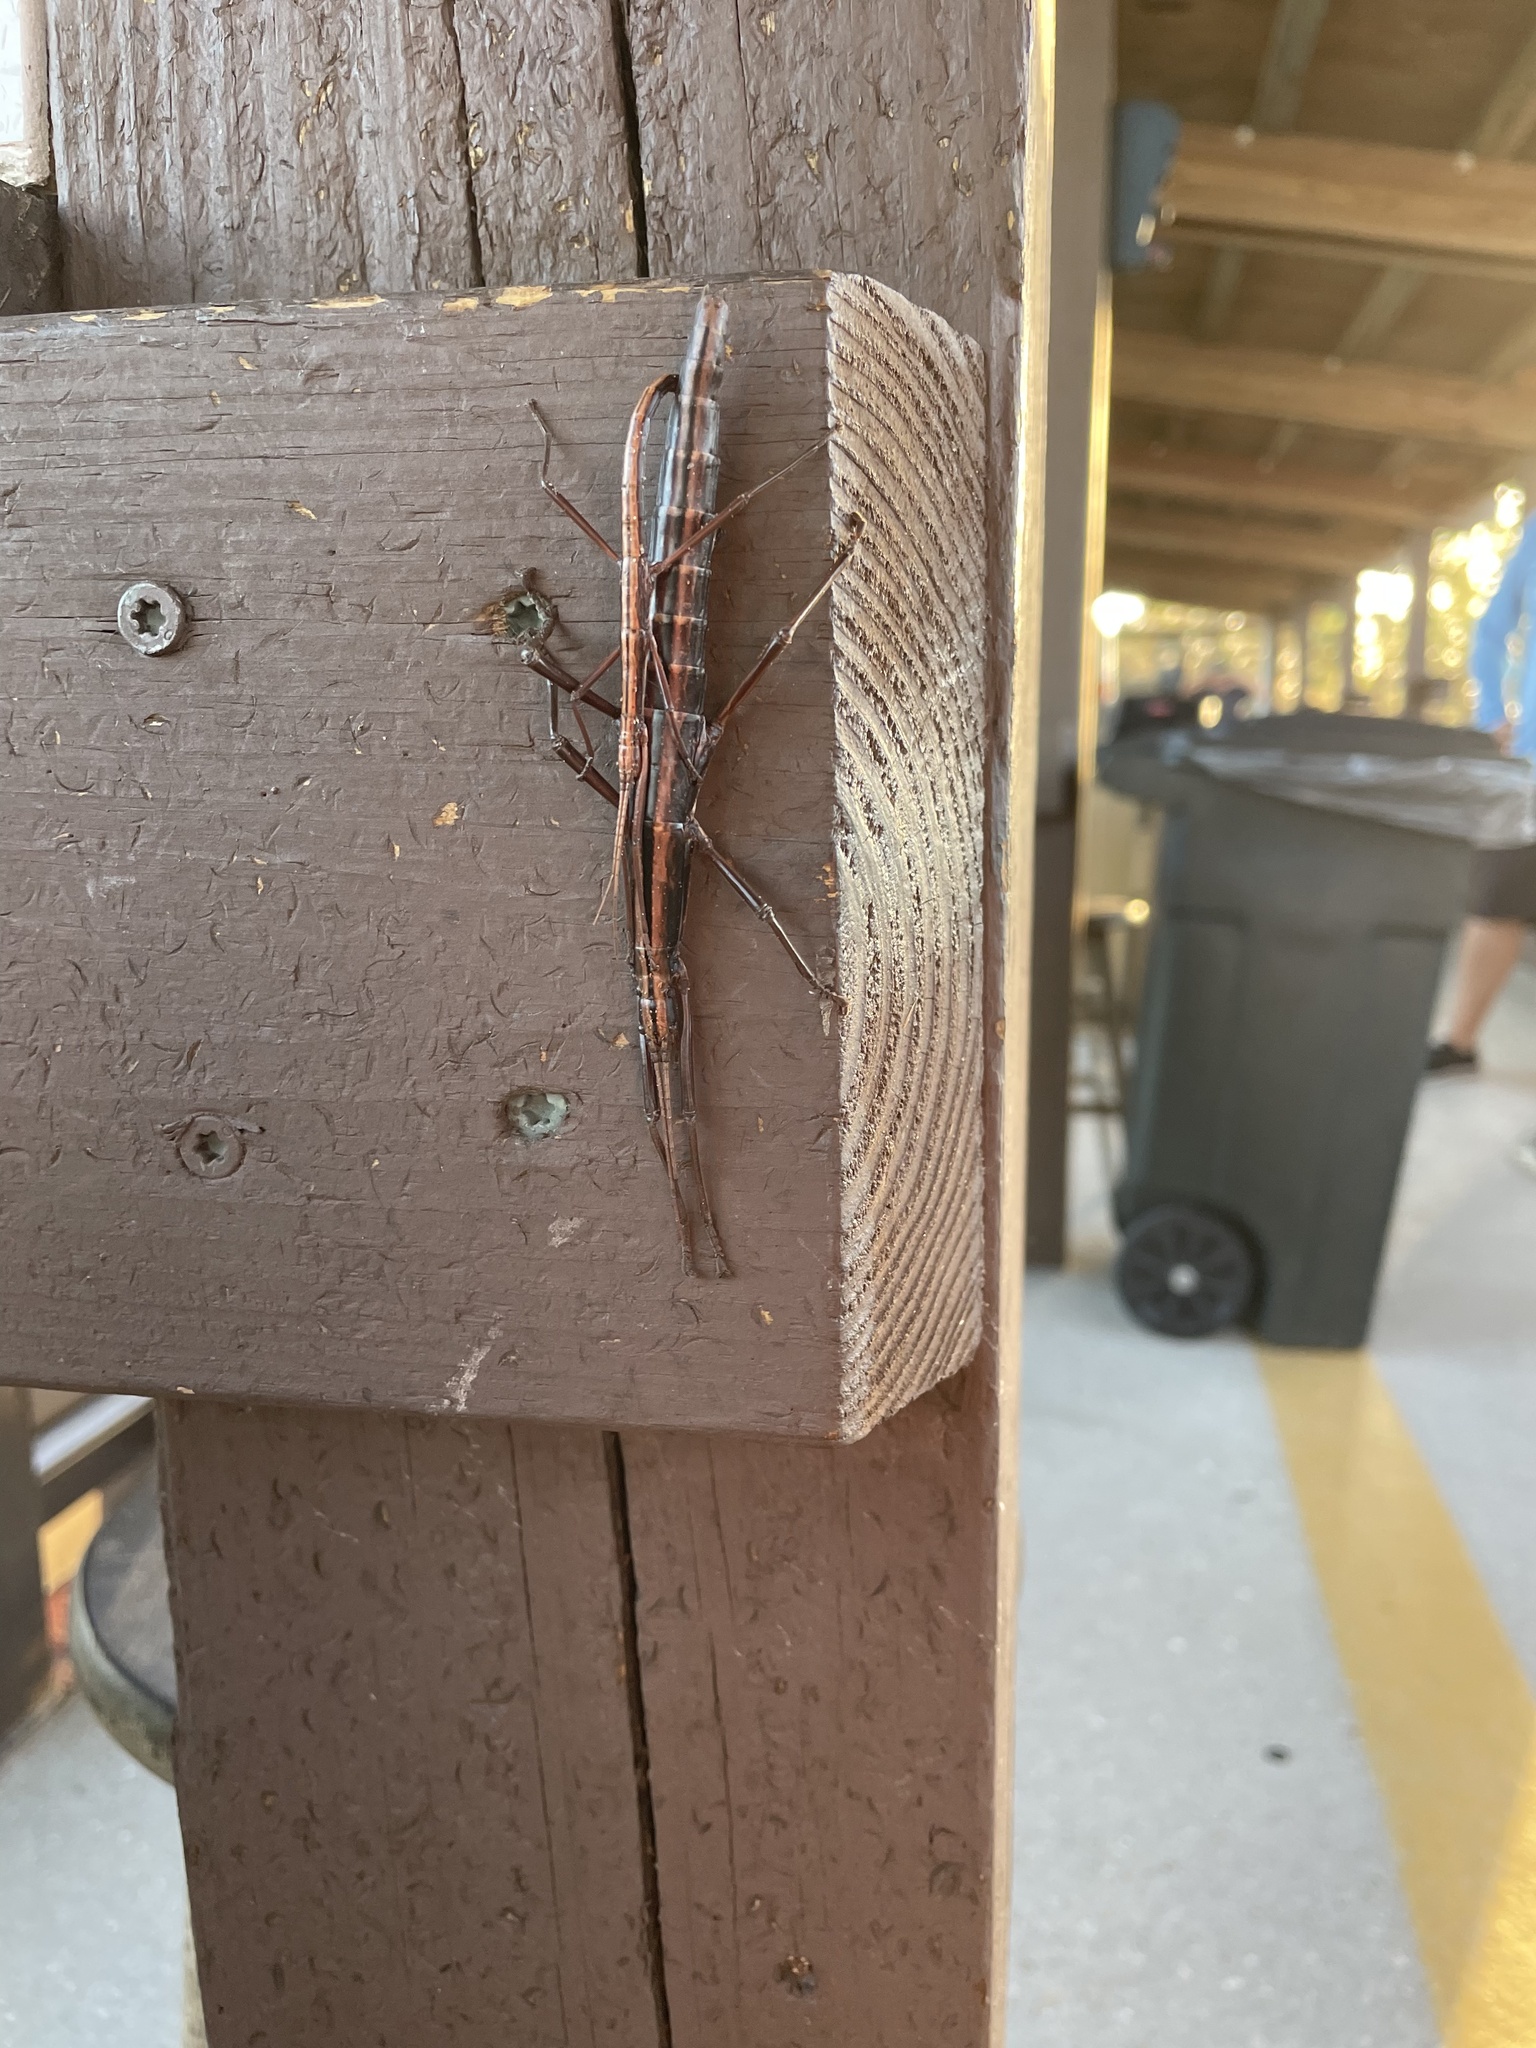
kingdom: Animalia
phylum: Arthropoda
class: Insecta
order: Phasmida
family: Pseudophasmatidae
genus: Anisomorpha
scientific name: Anisomorpha buprestoides
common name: Florida stick insect
